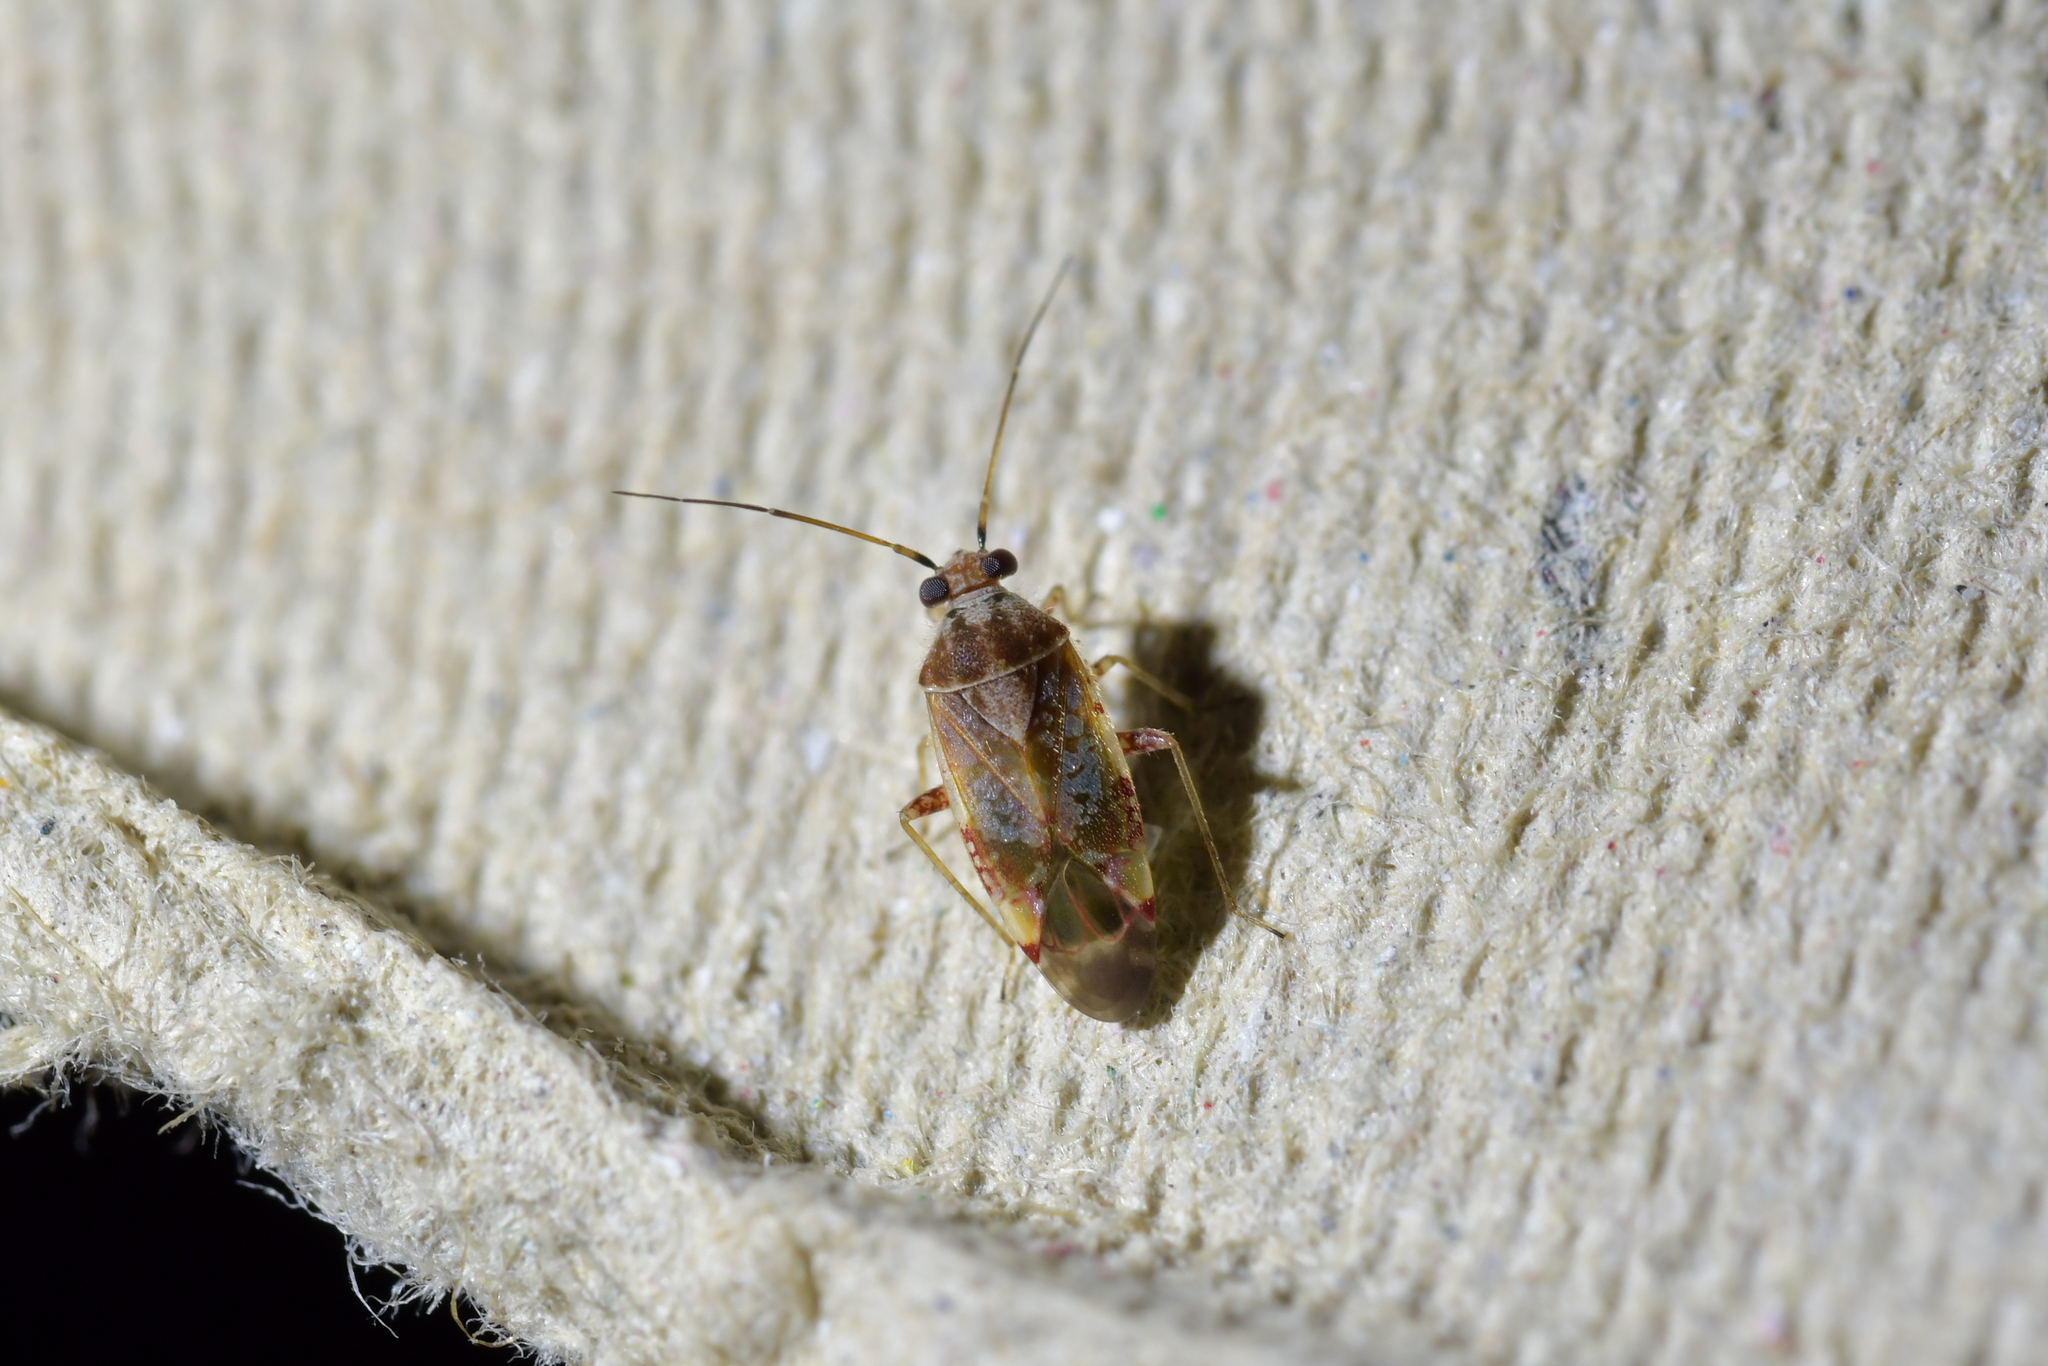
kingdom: Animalia
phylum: Arthropoda
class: Insecta
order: Hemiptera
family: Miridae
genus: Tinginotum
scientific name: Tinginotum minutum
